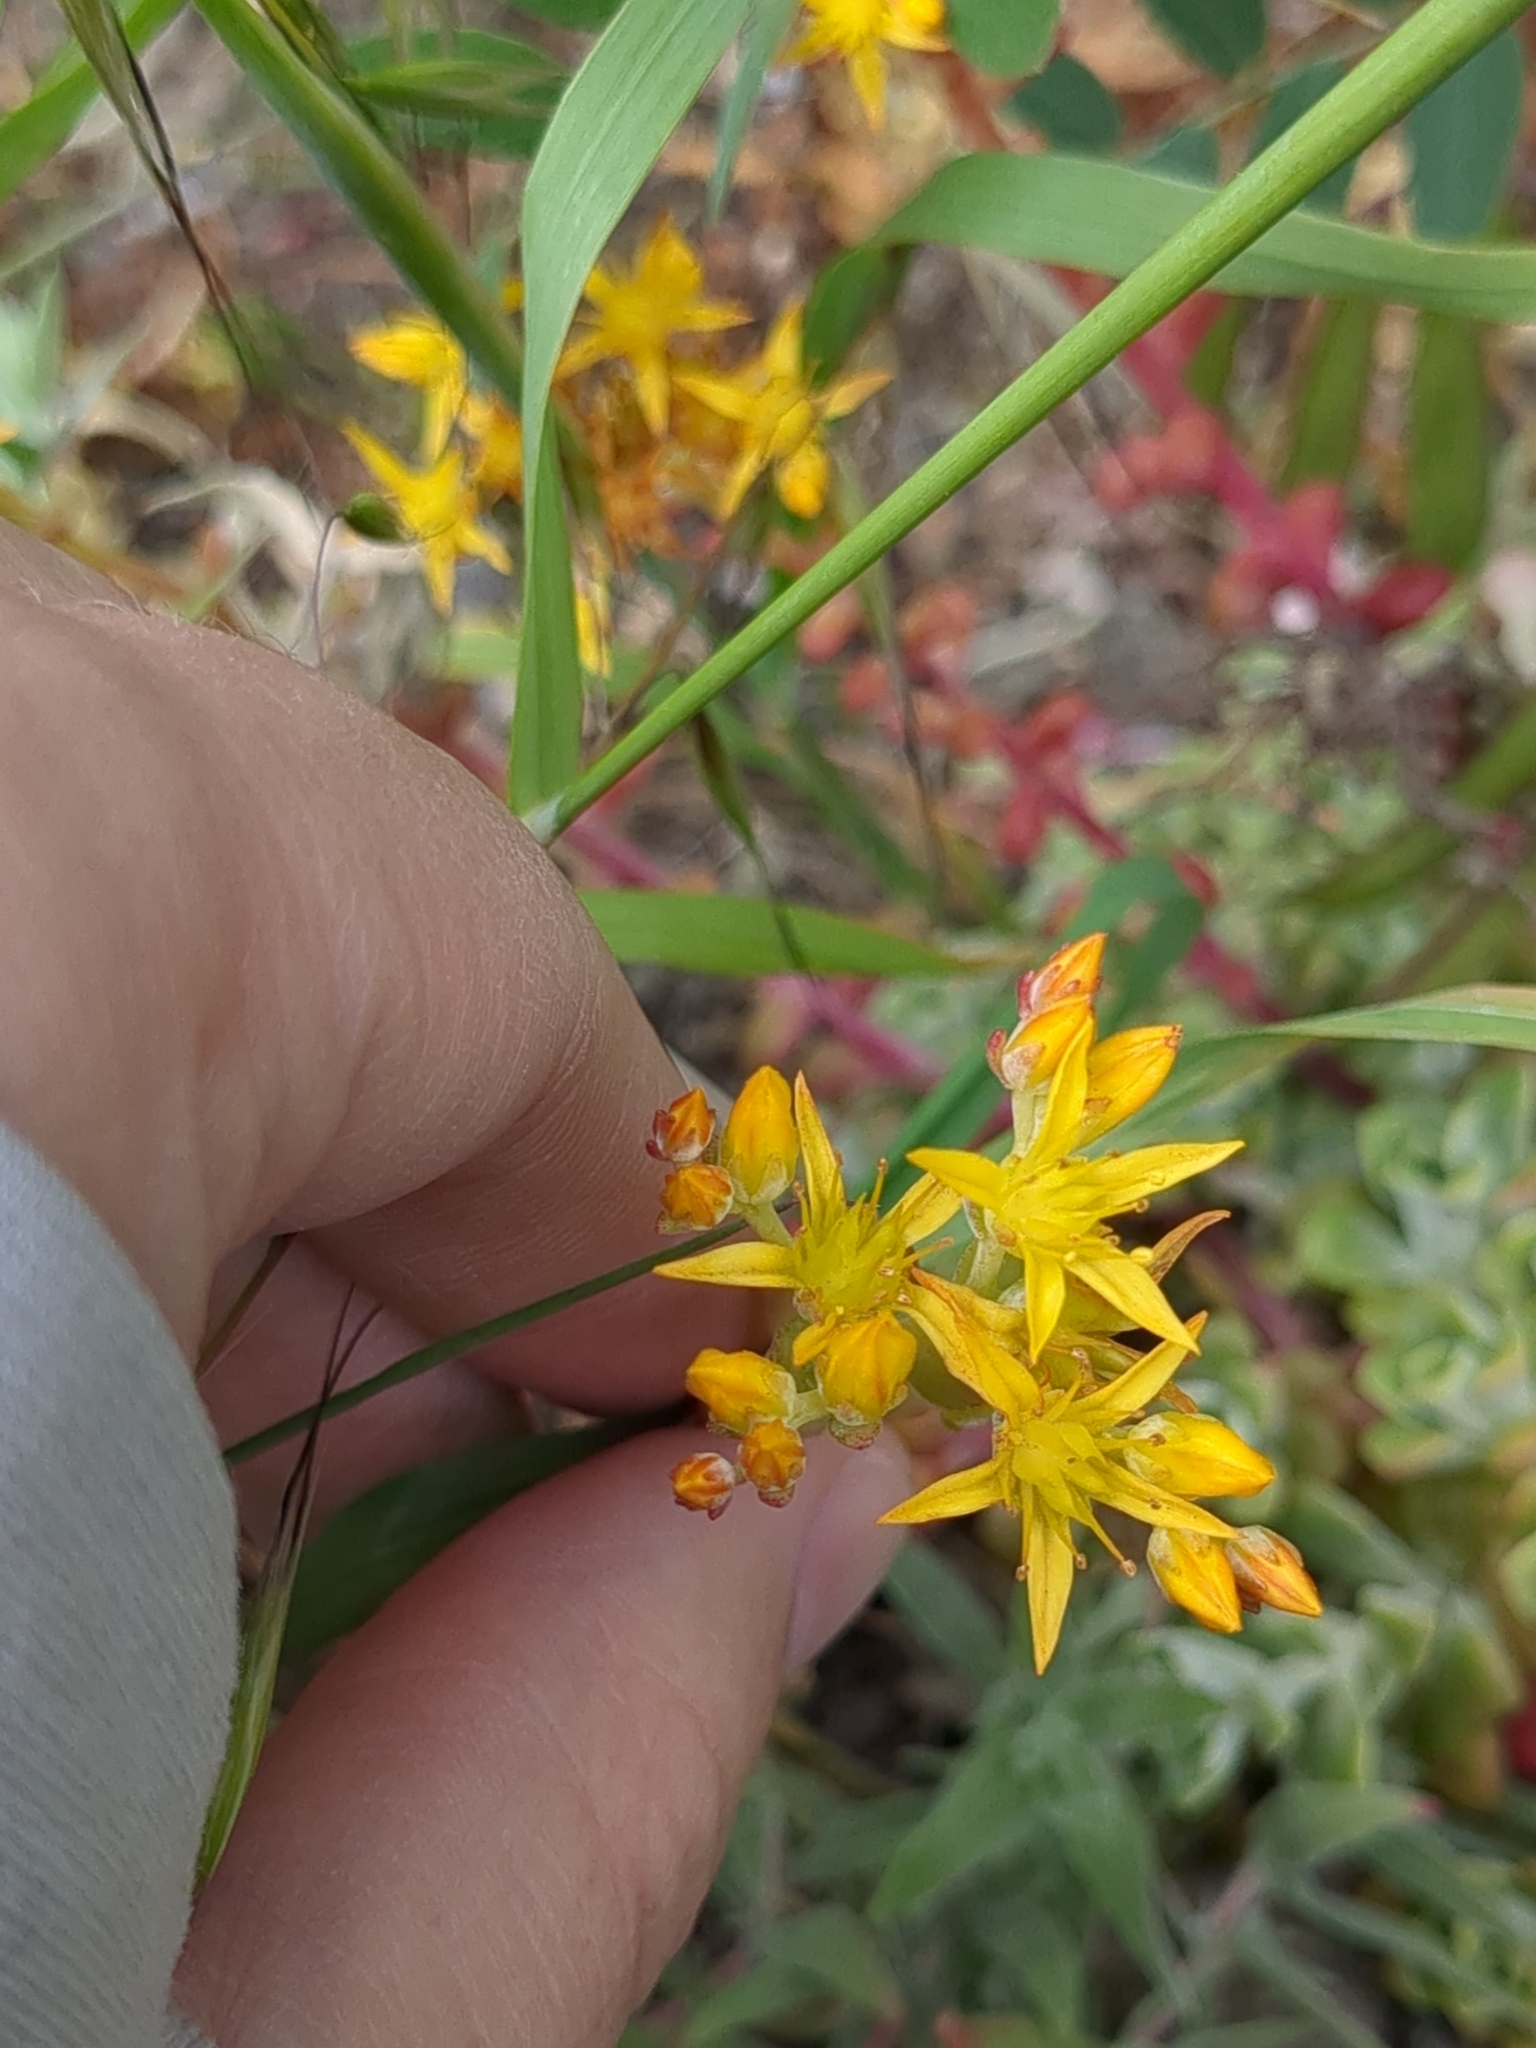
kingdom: Plantae
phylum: Tracheophyta
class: Magnoliopsida
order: Saxifragales
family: Crassulaceae
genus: Sedum
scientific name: Sedum spathulifolium
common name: Colorado stonecrop
